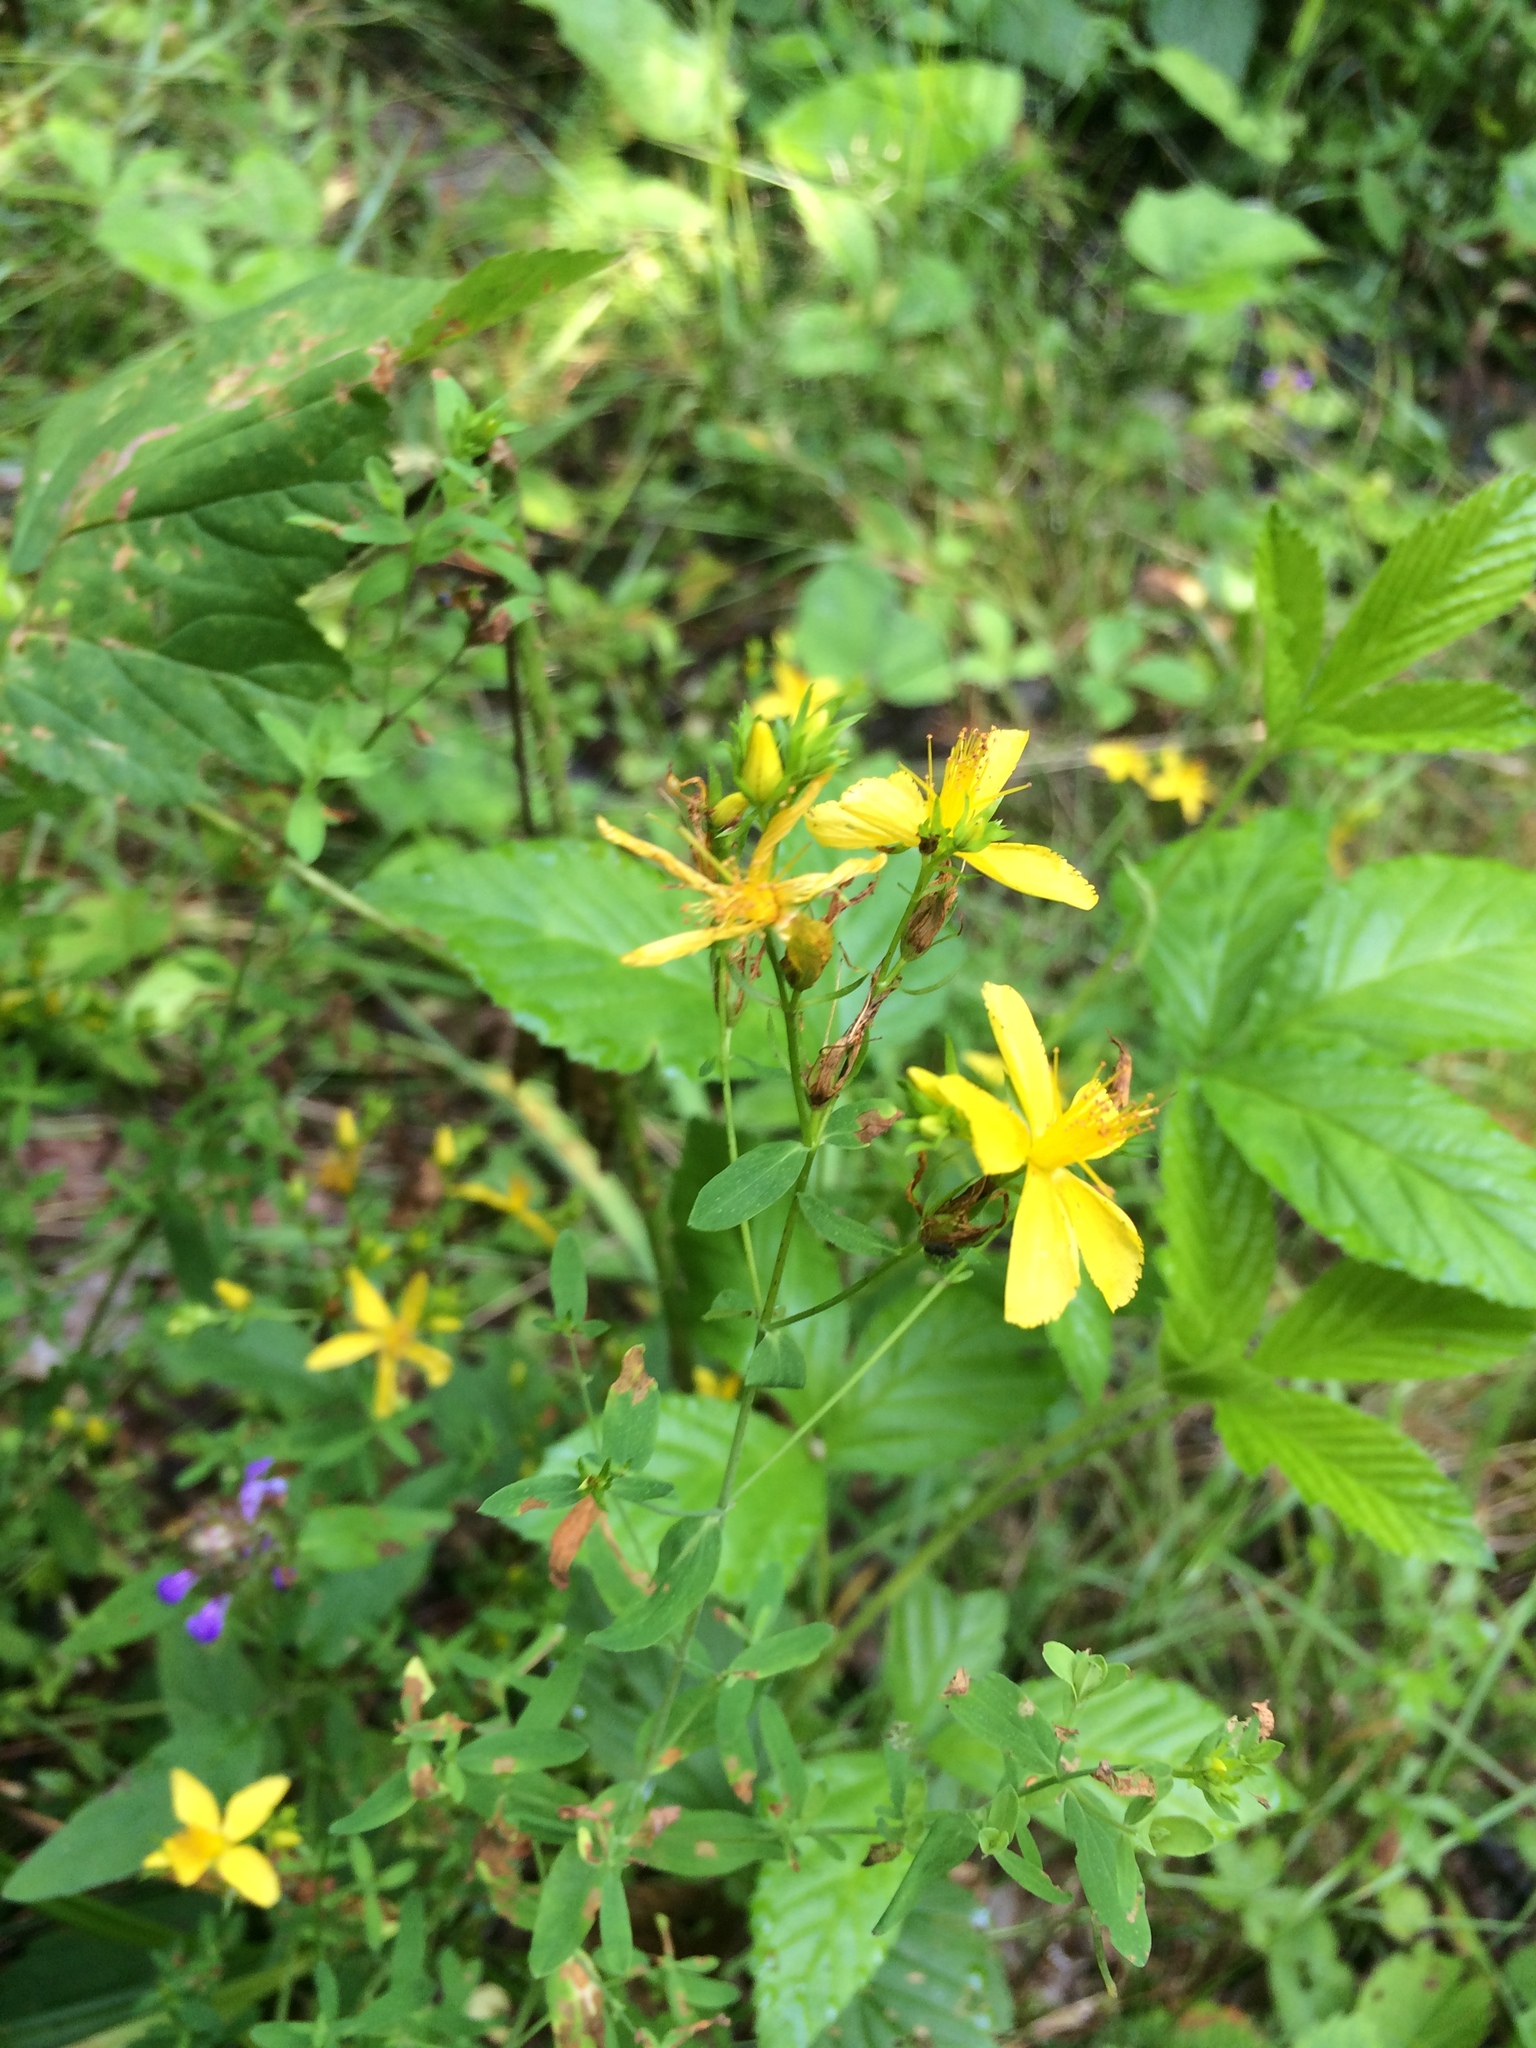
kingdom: Plantae
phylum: Tracheophyta
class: Magnoliopsida
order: Malpighiales
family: Hypericaceae
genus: Hypericum
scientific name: Hypericum perforatum
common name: Common st. johnswort
